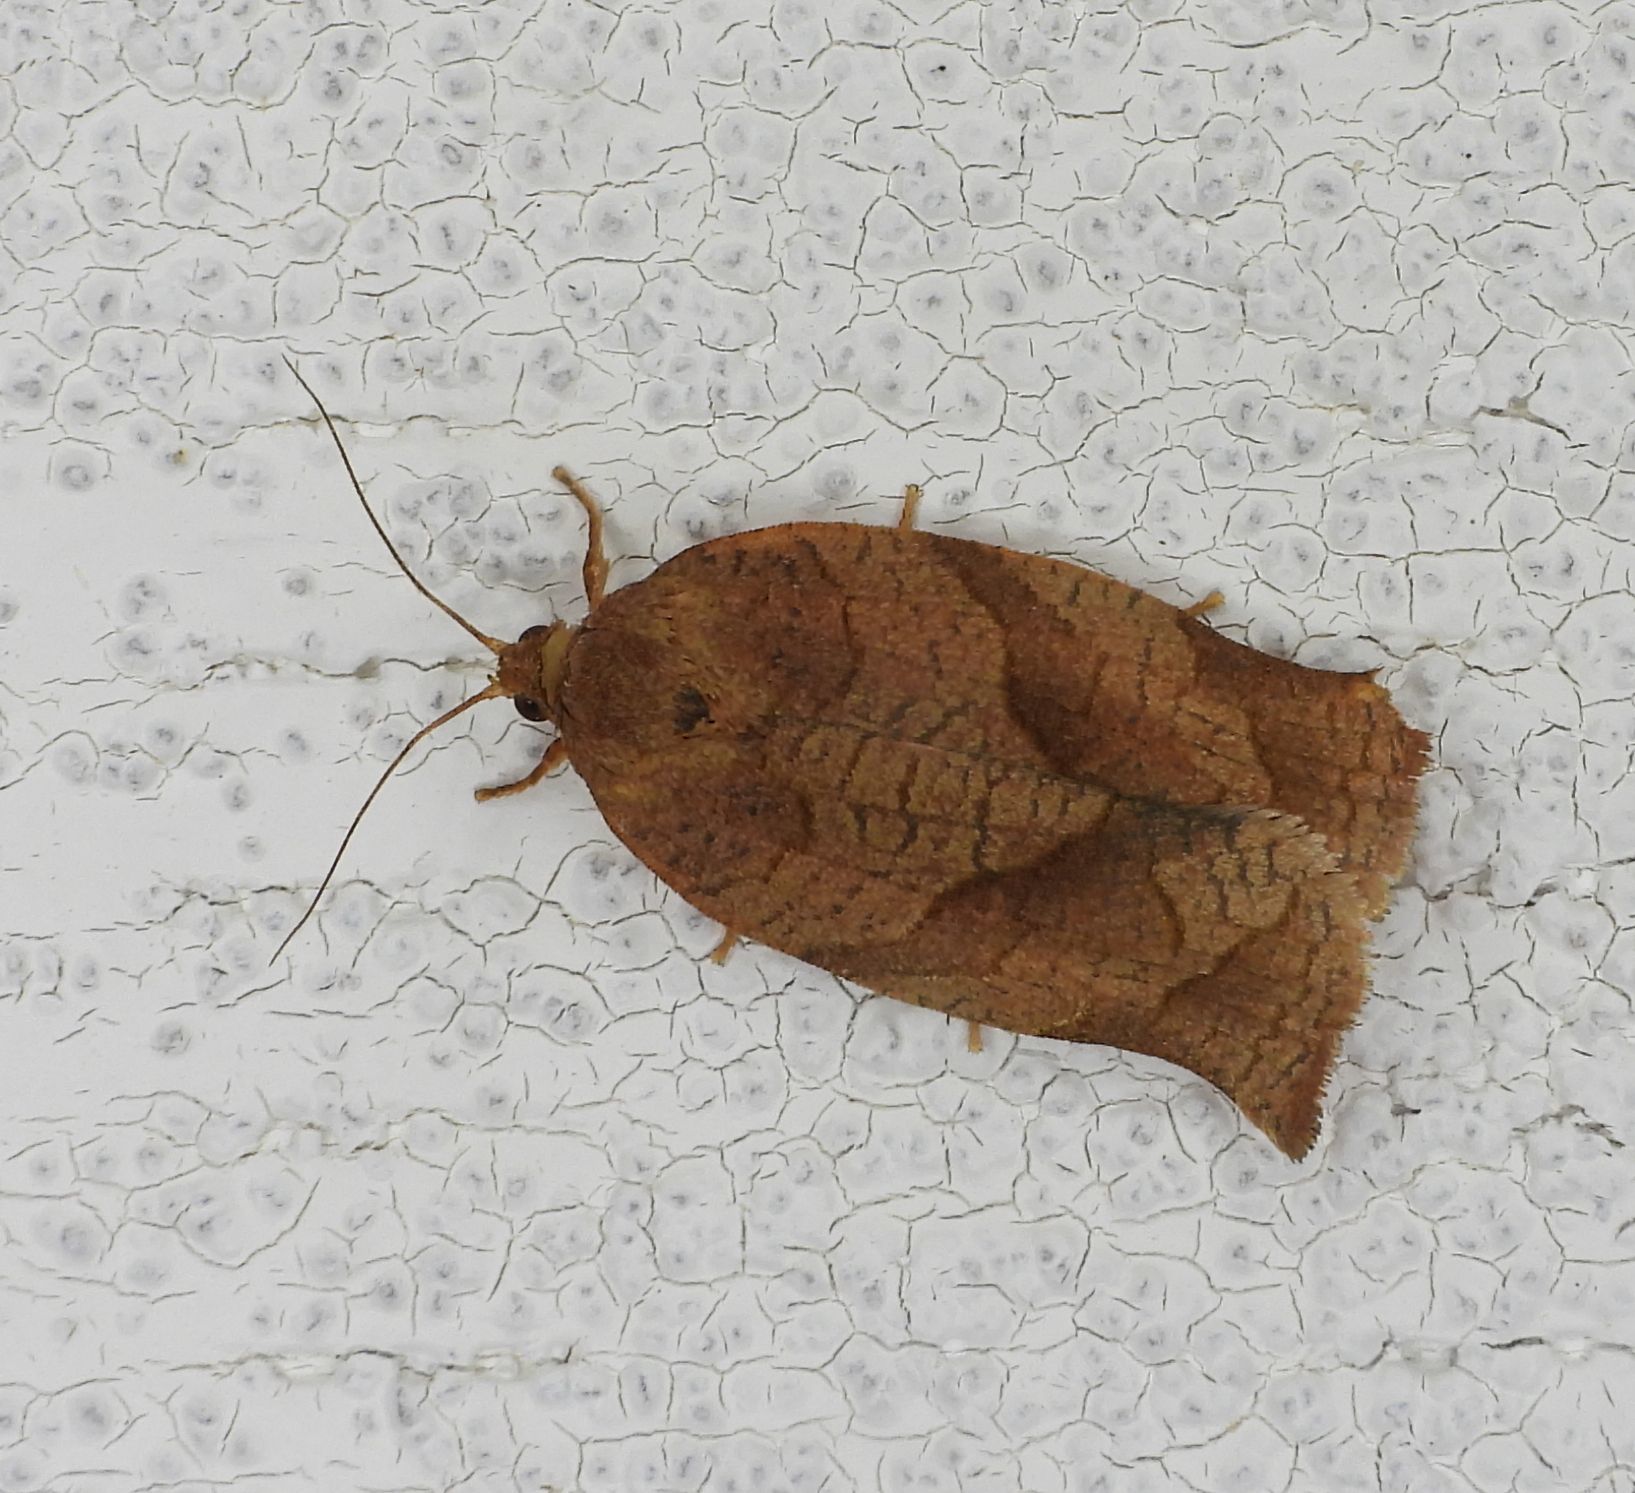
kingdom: Animalia
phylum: Arthropoda
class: Insecta
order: Lepidoptera
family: Tortricidae
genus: Choristoneura
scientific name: Choristoneura rosaceana
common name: Oblique-banded leafroller moth
